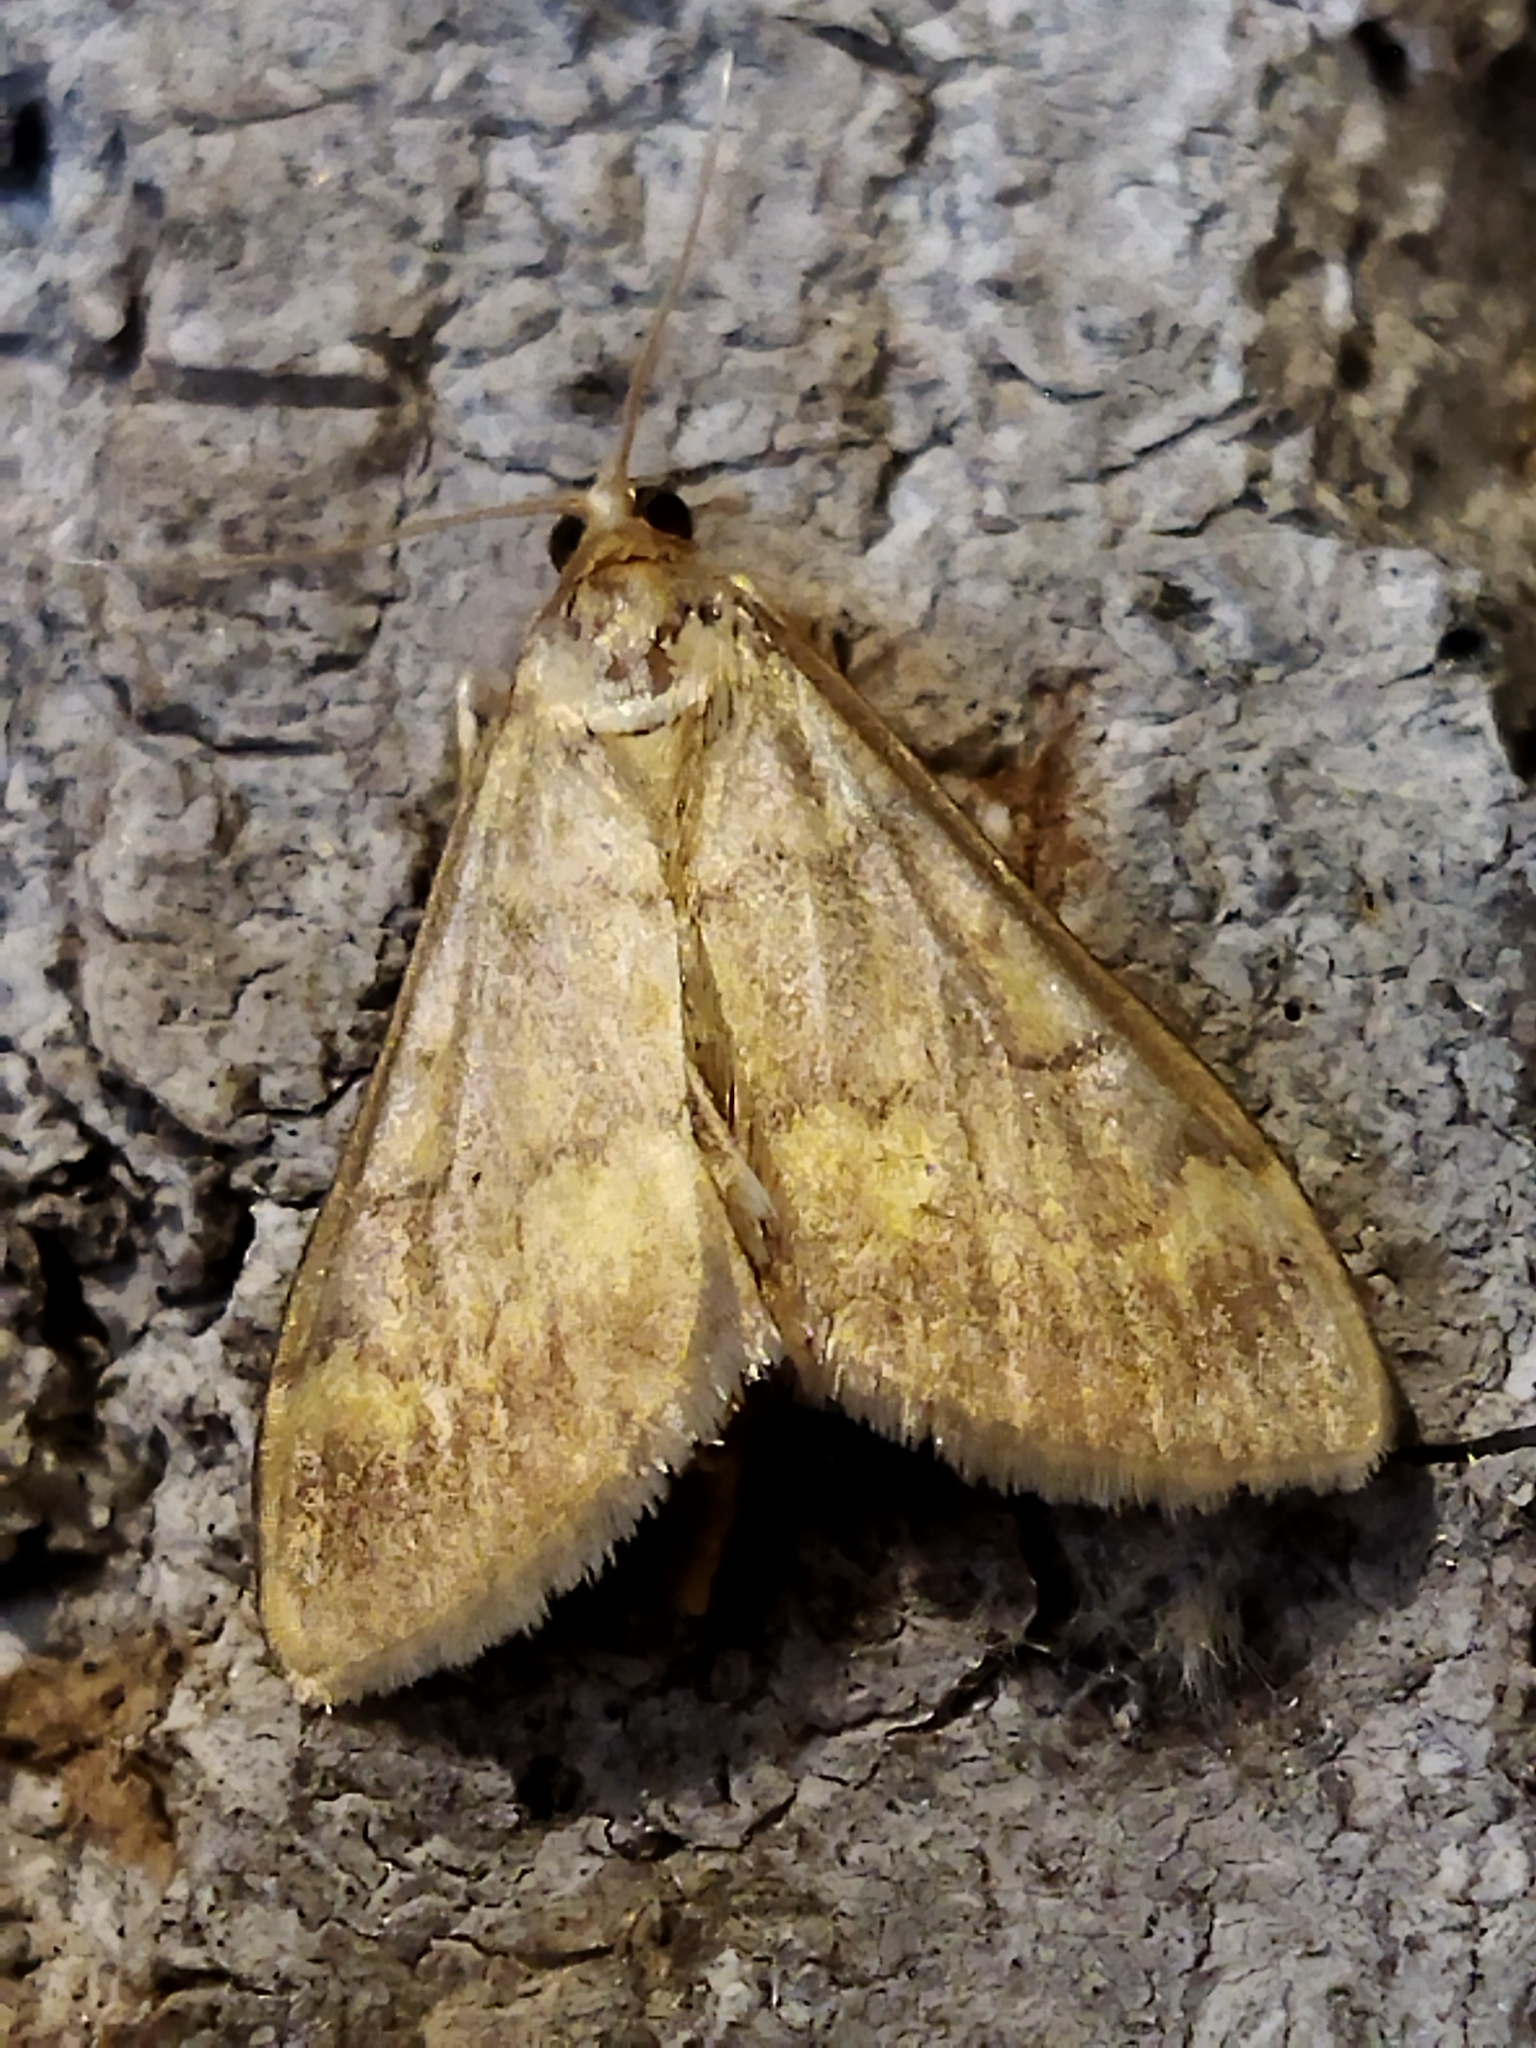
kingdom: Animalia
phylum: Arthropoda
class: Insecta
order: Lepidoptera
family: Crambidae
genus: Ostrinia
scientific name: Ostrinia nubilalis
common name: European corn borer
